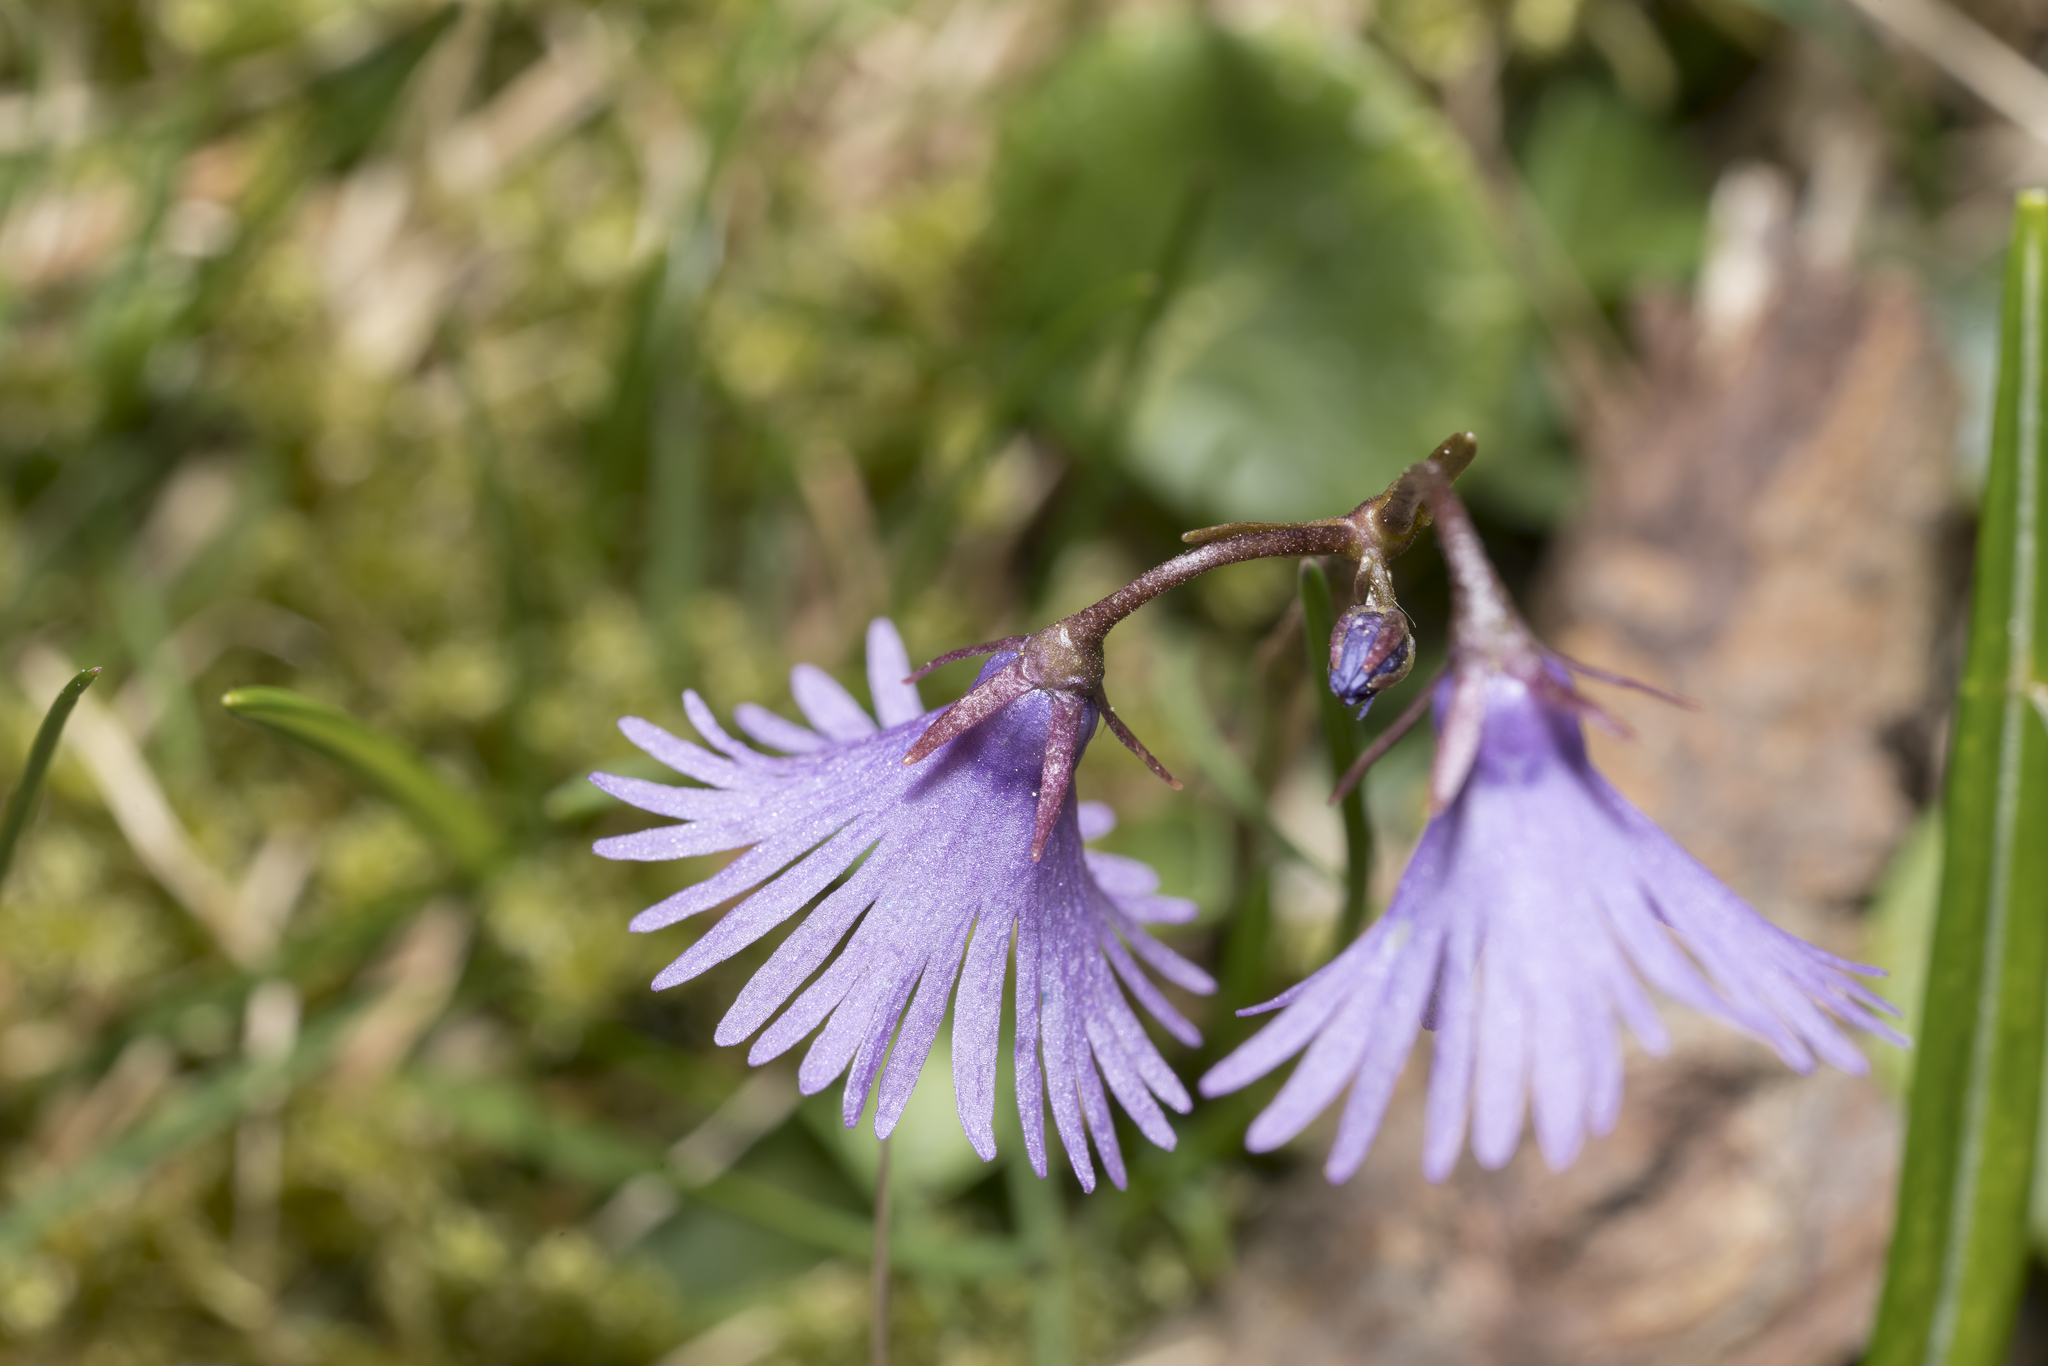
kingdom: Plantae
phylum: Tracheophyta
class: Magnoliopsida
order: Ericales
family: Primulaceae
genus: Soldanella
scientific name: Soldanella alpina
